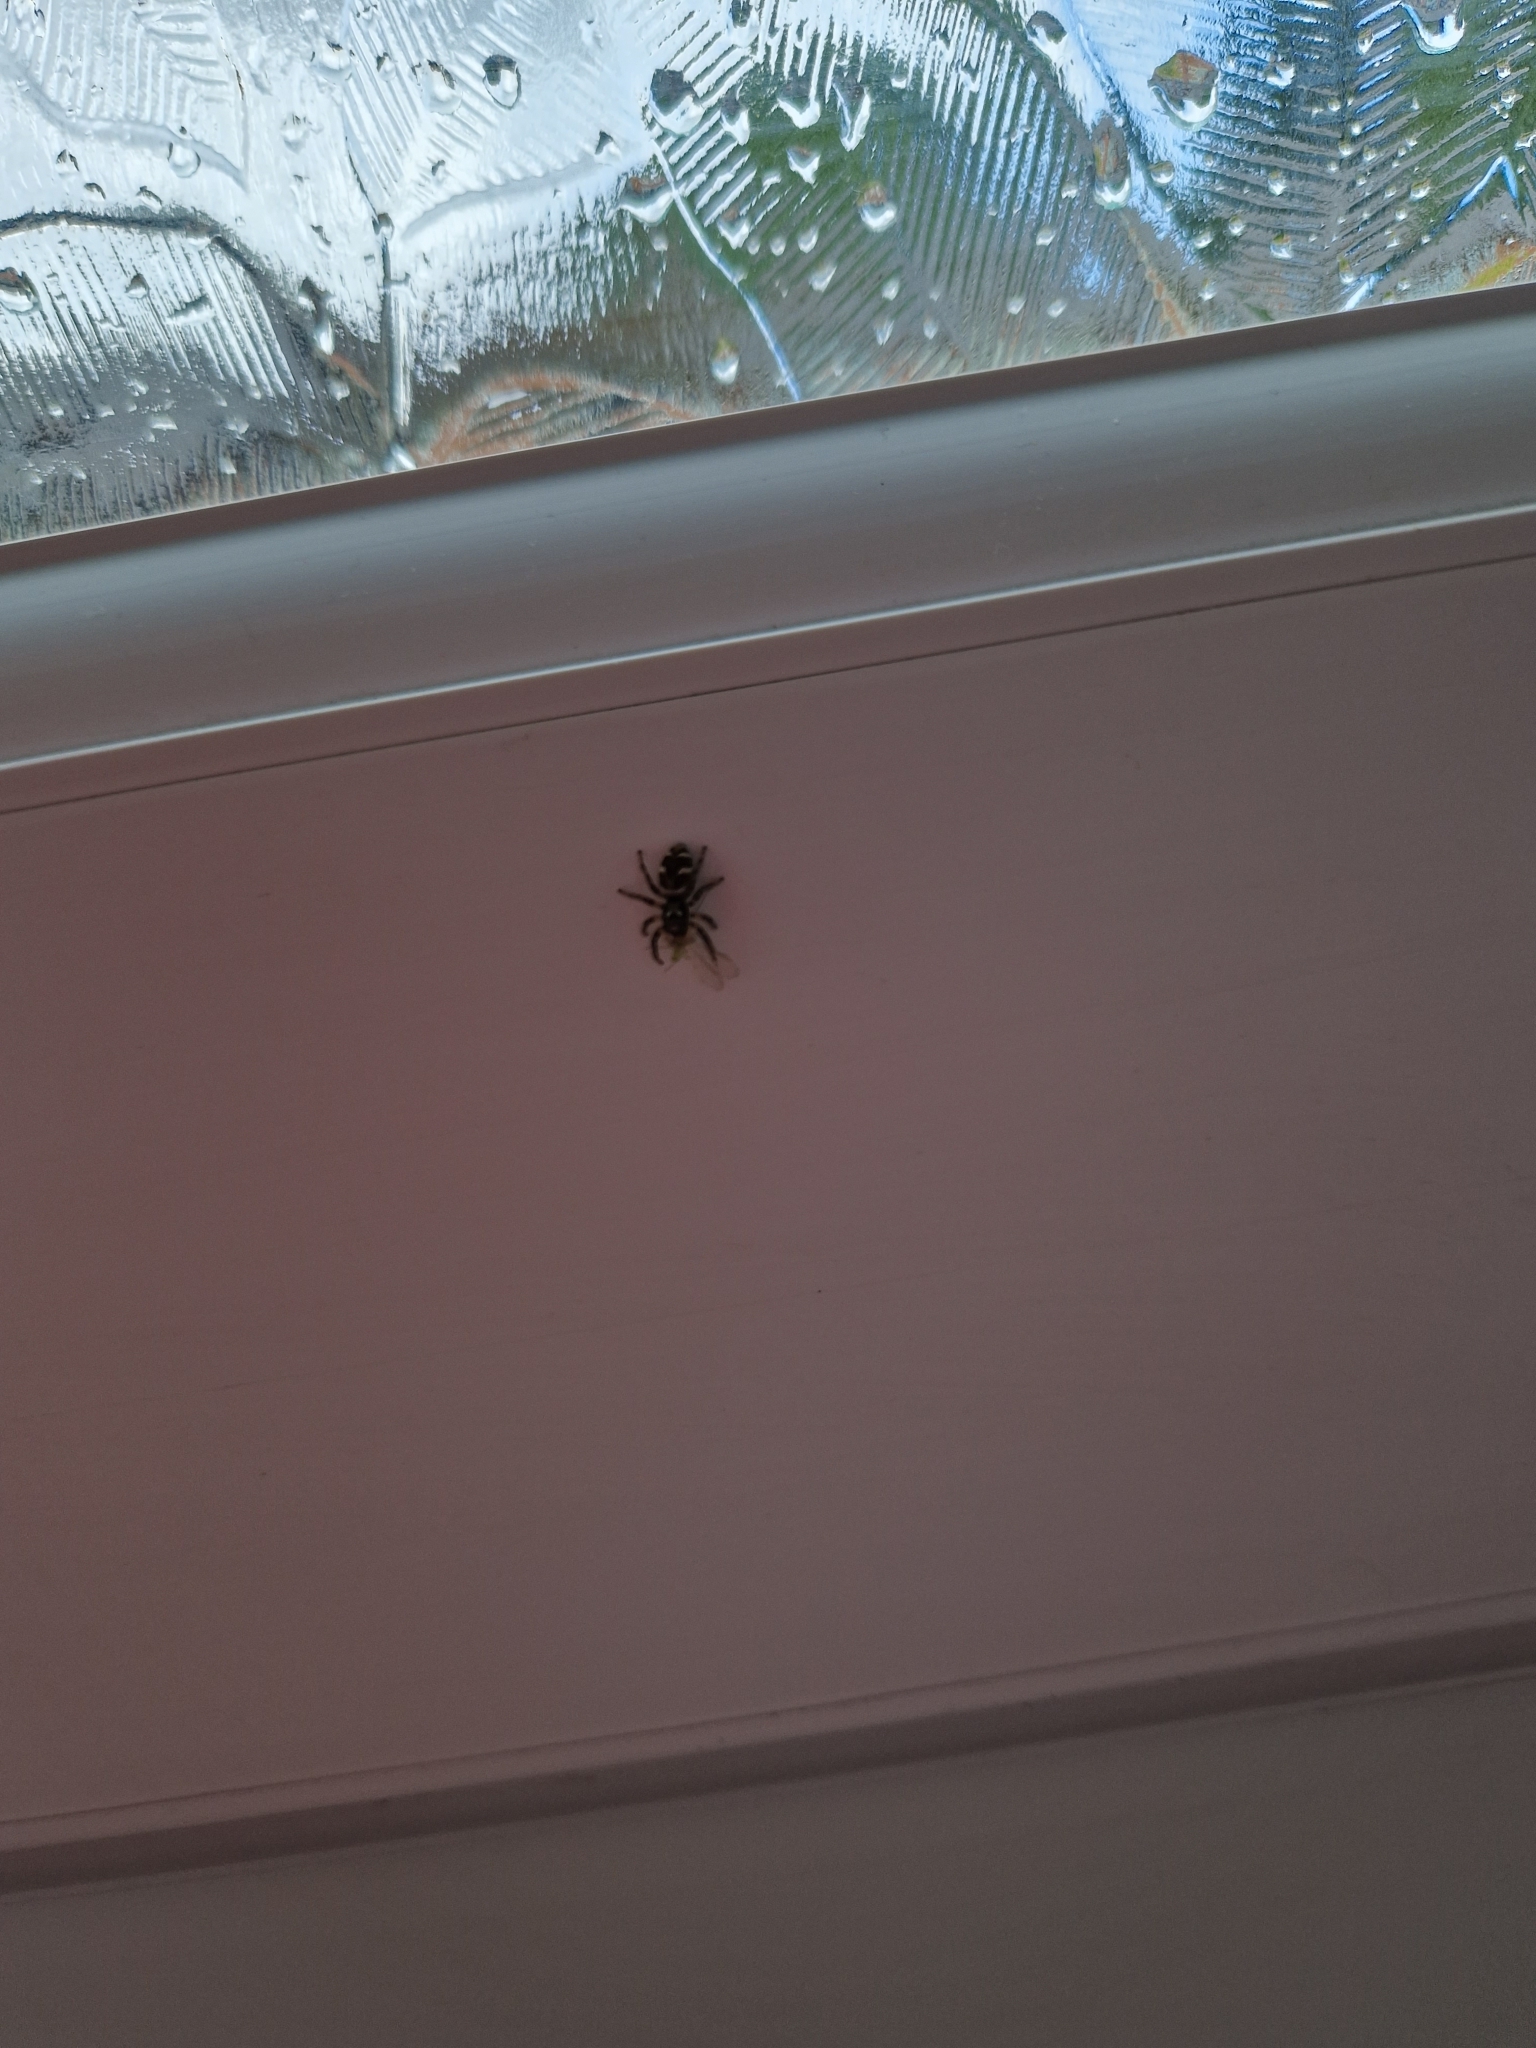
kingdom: Animalia
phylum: Arthropoda
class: Arachnida
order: Araneae
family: Salticidae
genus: Salticus
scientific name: Salticus scenicus
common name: Zebra jumper
